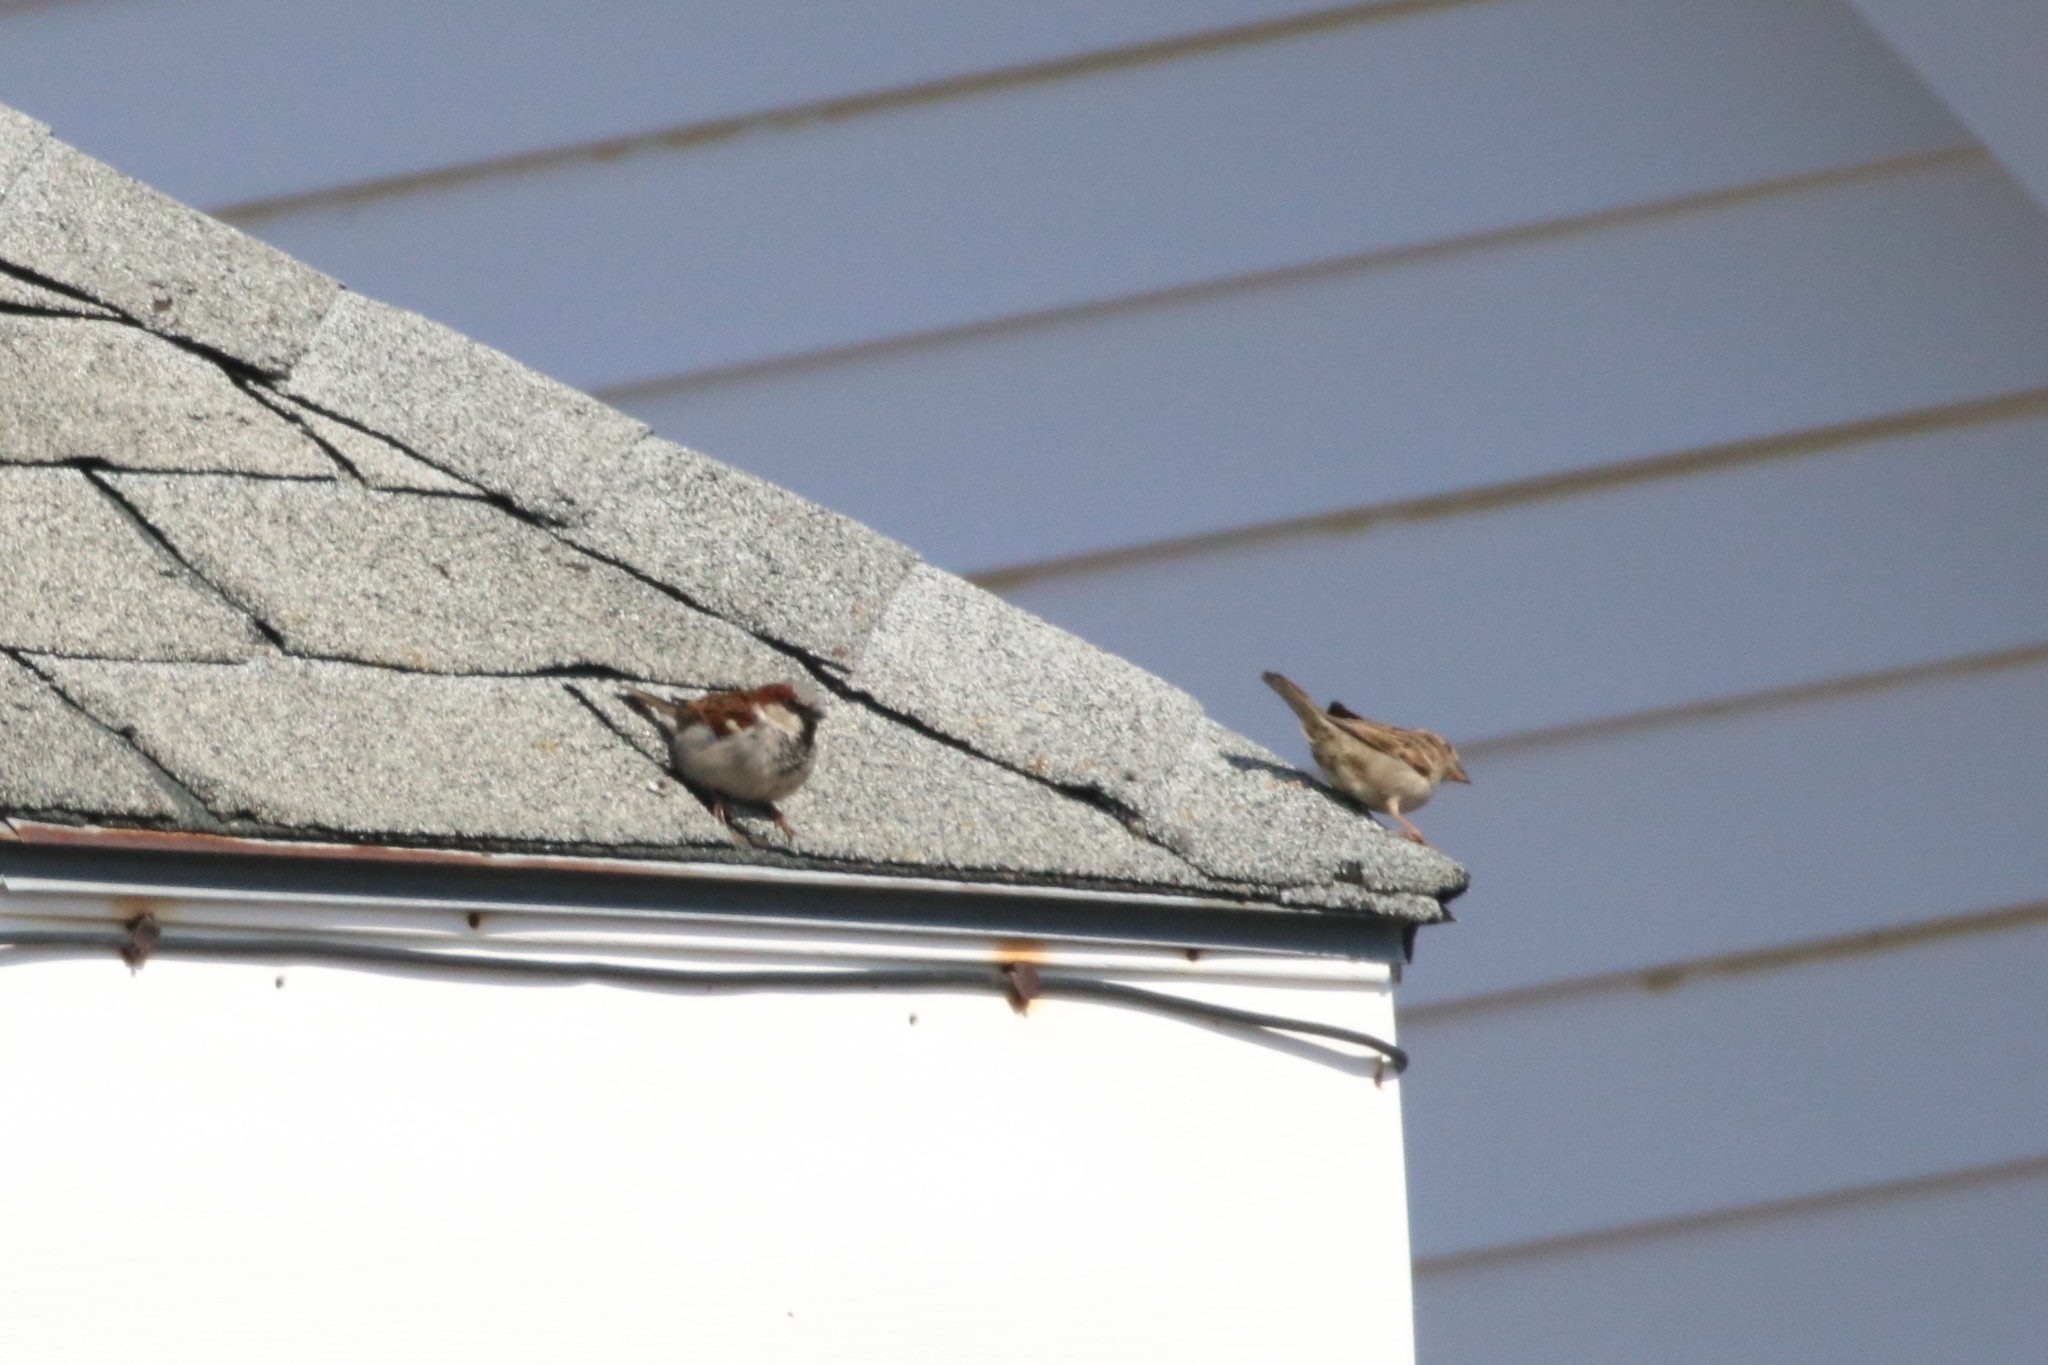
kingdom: Animalia
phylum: Chordata
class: Aves
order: Passeriformes
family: Passeridae
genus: Passer
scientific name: Passer domesticus
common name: House sparrow
